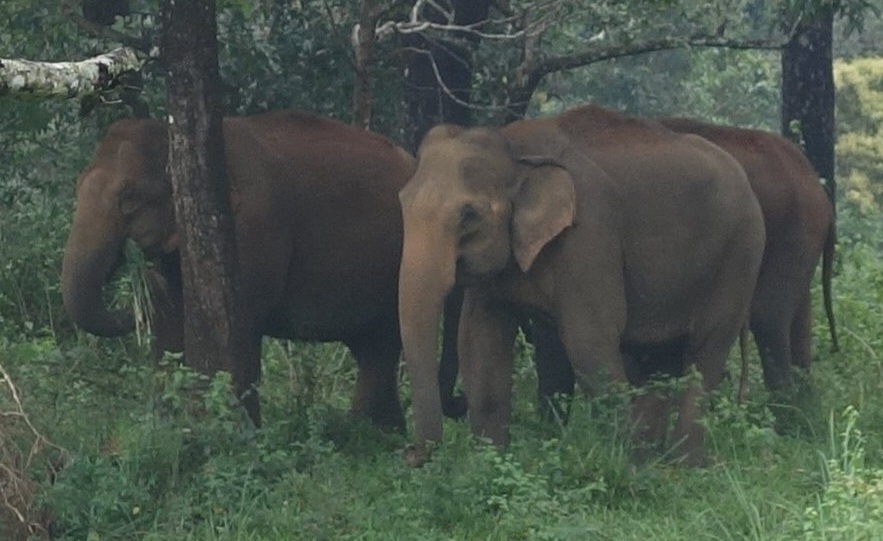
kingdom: Animalia
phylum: Chordata
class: Mammalia
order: Proboscidea
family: Elephantidae
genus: Elephas
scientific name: Elephas maximus
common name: Asian elephant
